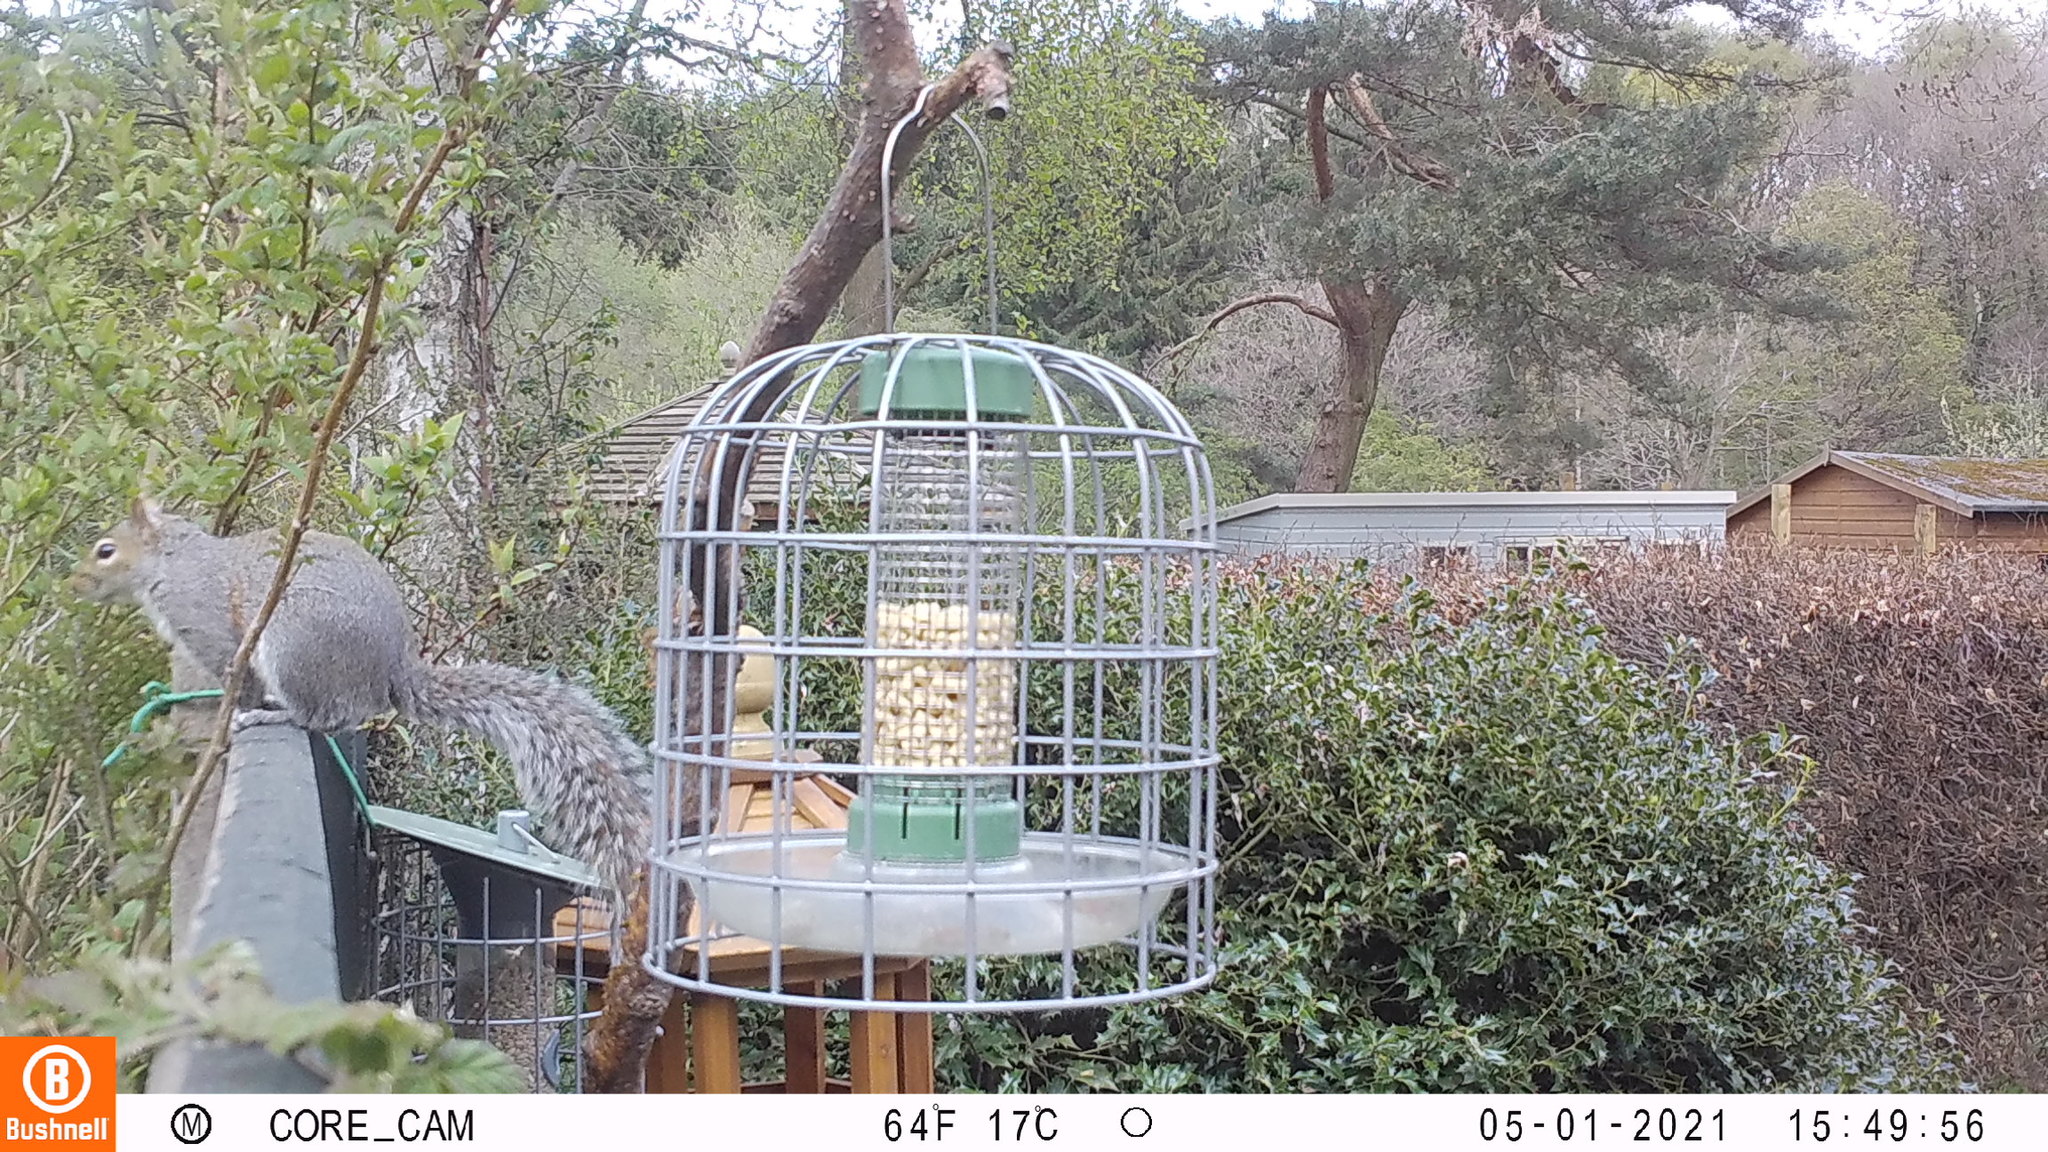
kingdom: Animalia
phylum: Chordata
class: Mammalia
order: Rodentia
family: Sciuridae
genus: Sciurus
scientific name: Sciurus carolinensis
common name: Eastern gray squirrel
